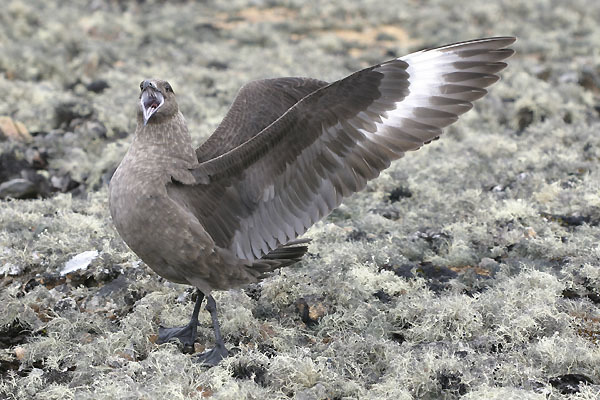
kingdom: Animalia
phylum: Chordata
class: Aves
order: Charadriiformes
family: Stercorariidae
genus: Stercorarius
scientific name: Stercorarius maccormicki
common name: South polar skua
